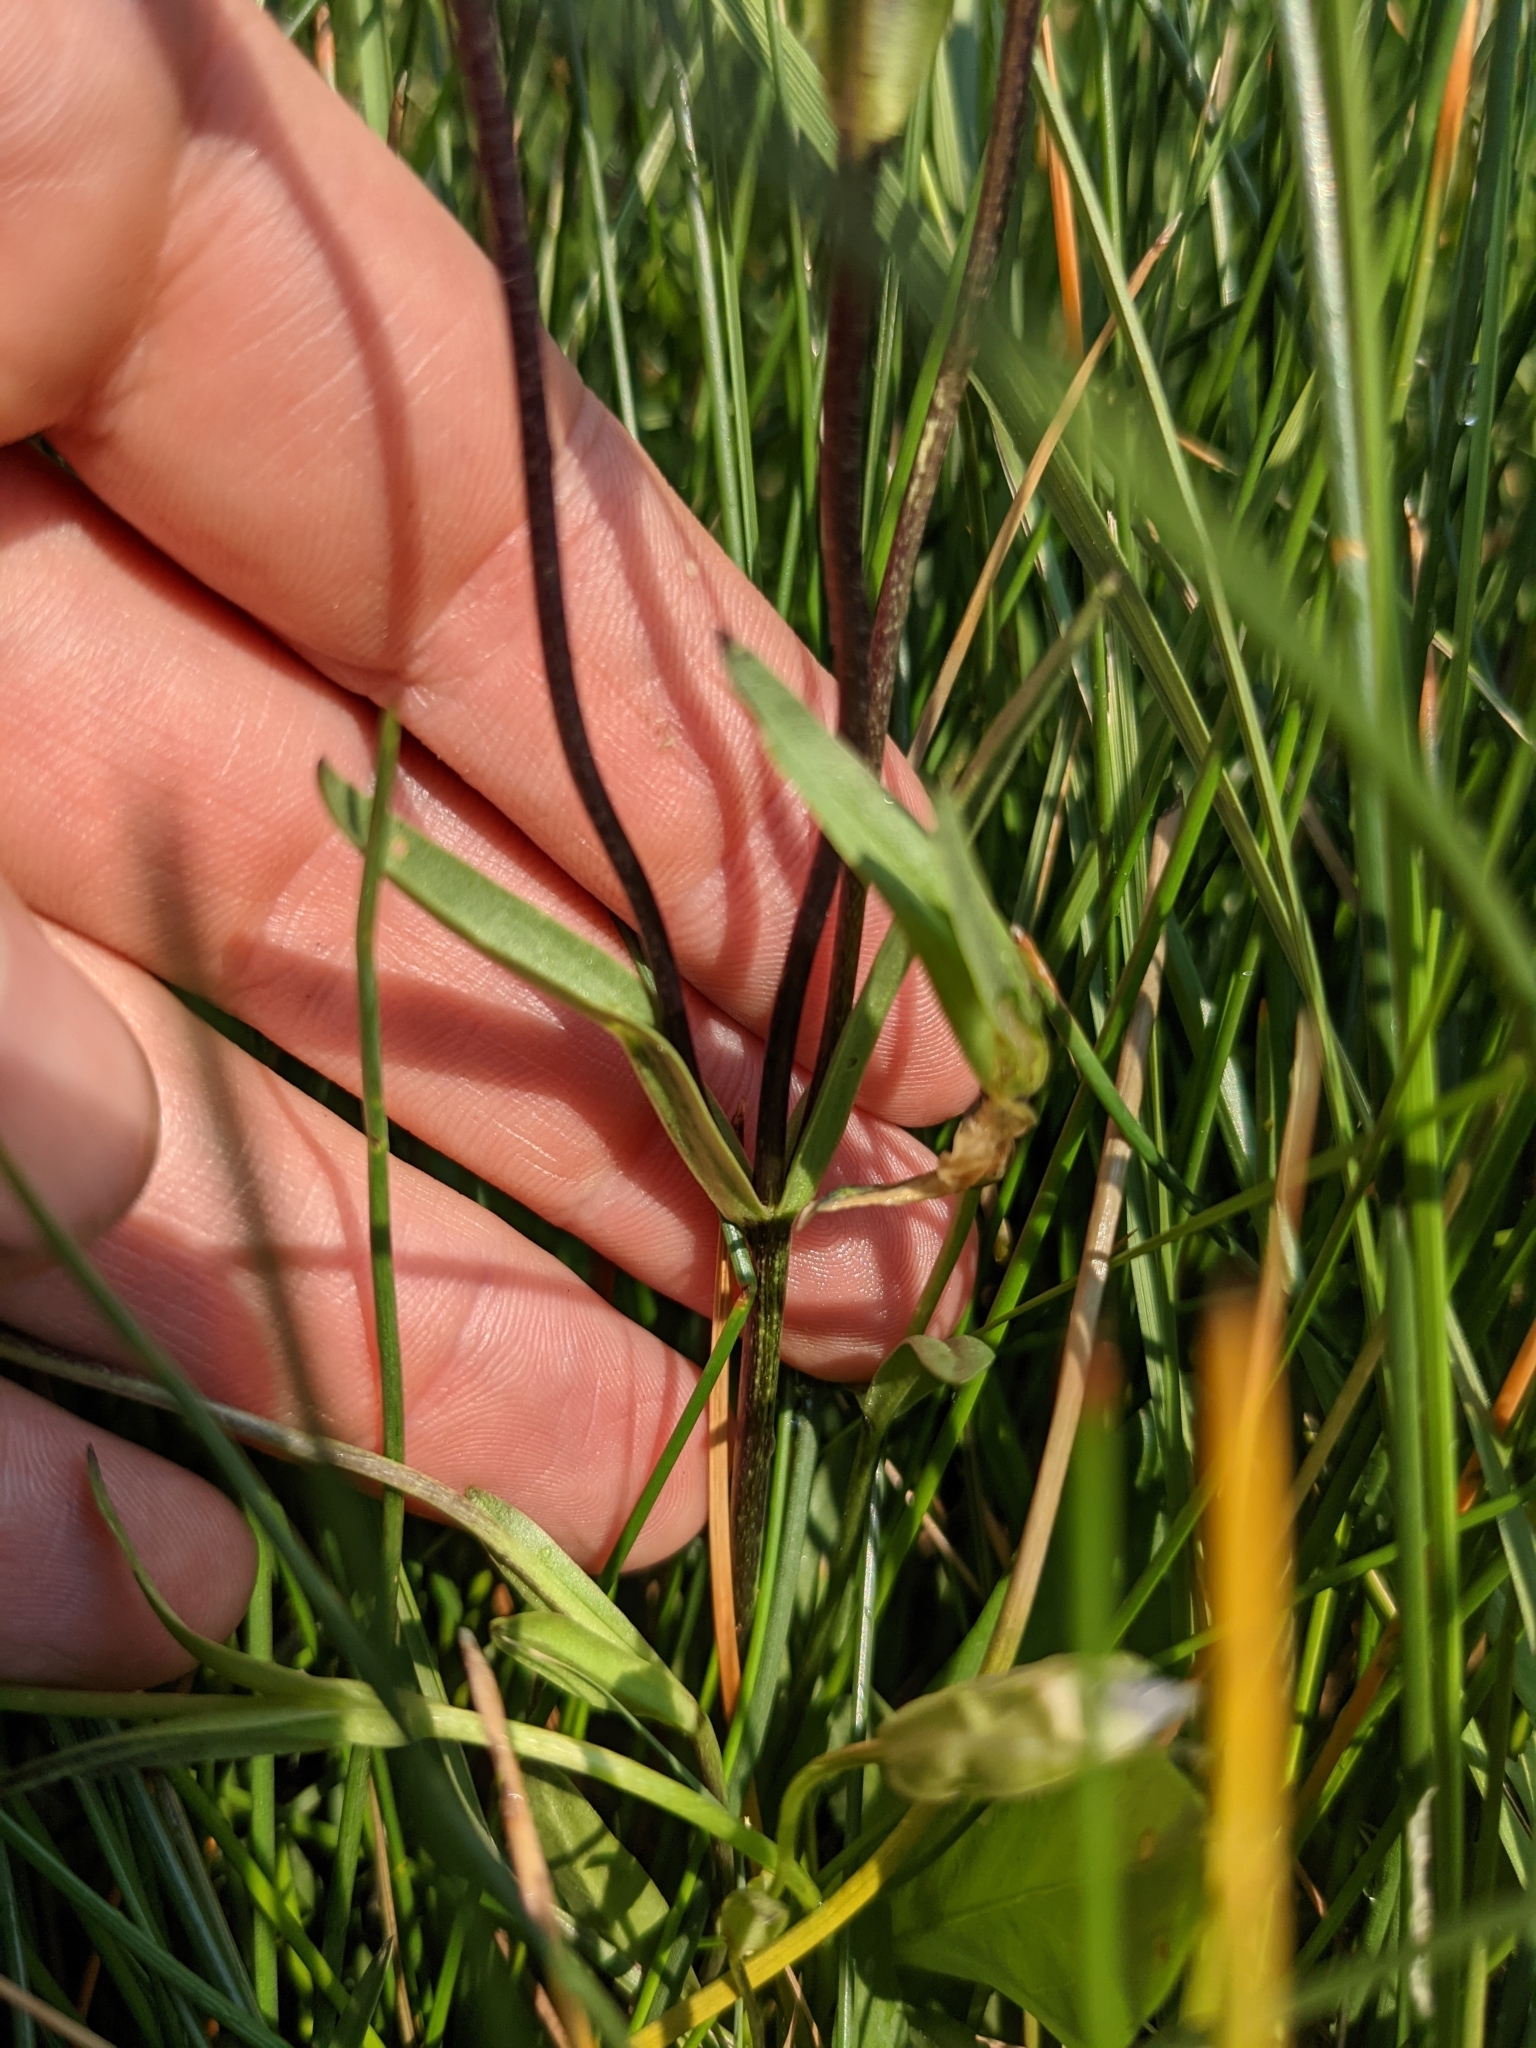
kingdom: Plantae
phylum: Tracheophyta
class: Magnoliopsida
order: Gentianales
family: Gentianaceae
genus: Gentianopsis
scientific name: Gentianopsis thermalis
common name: Rocky mountain fringed-gentian
